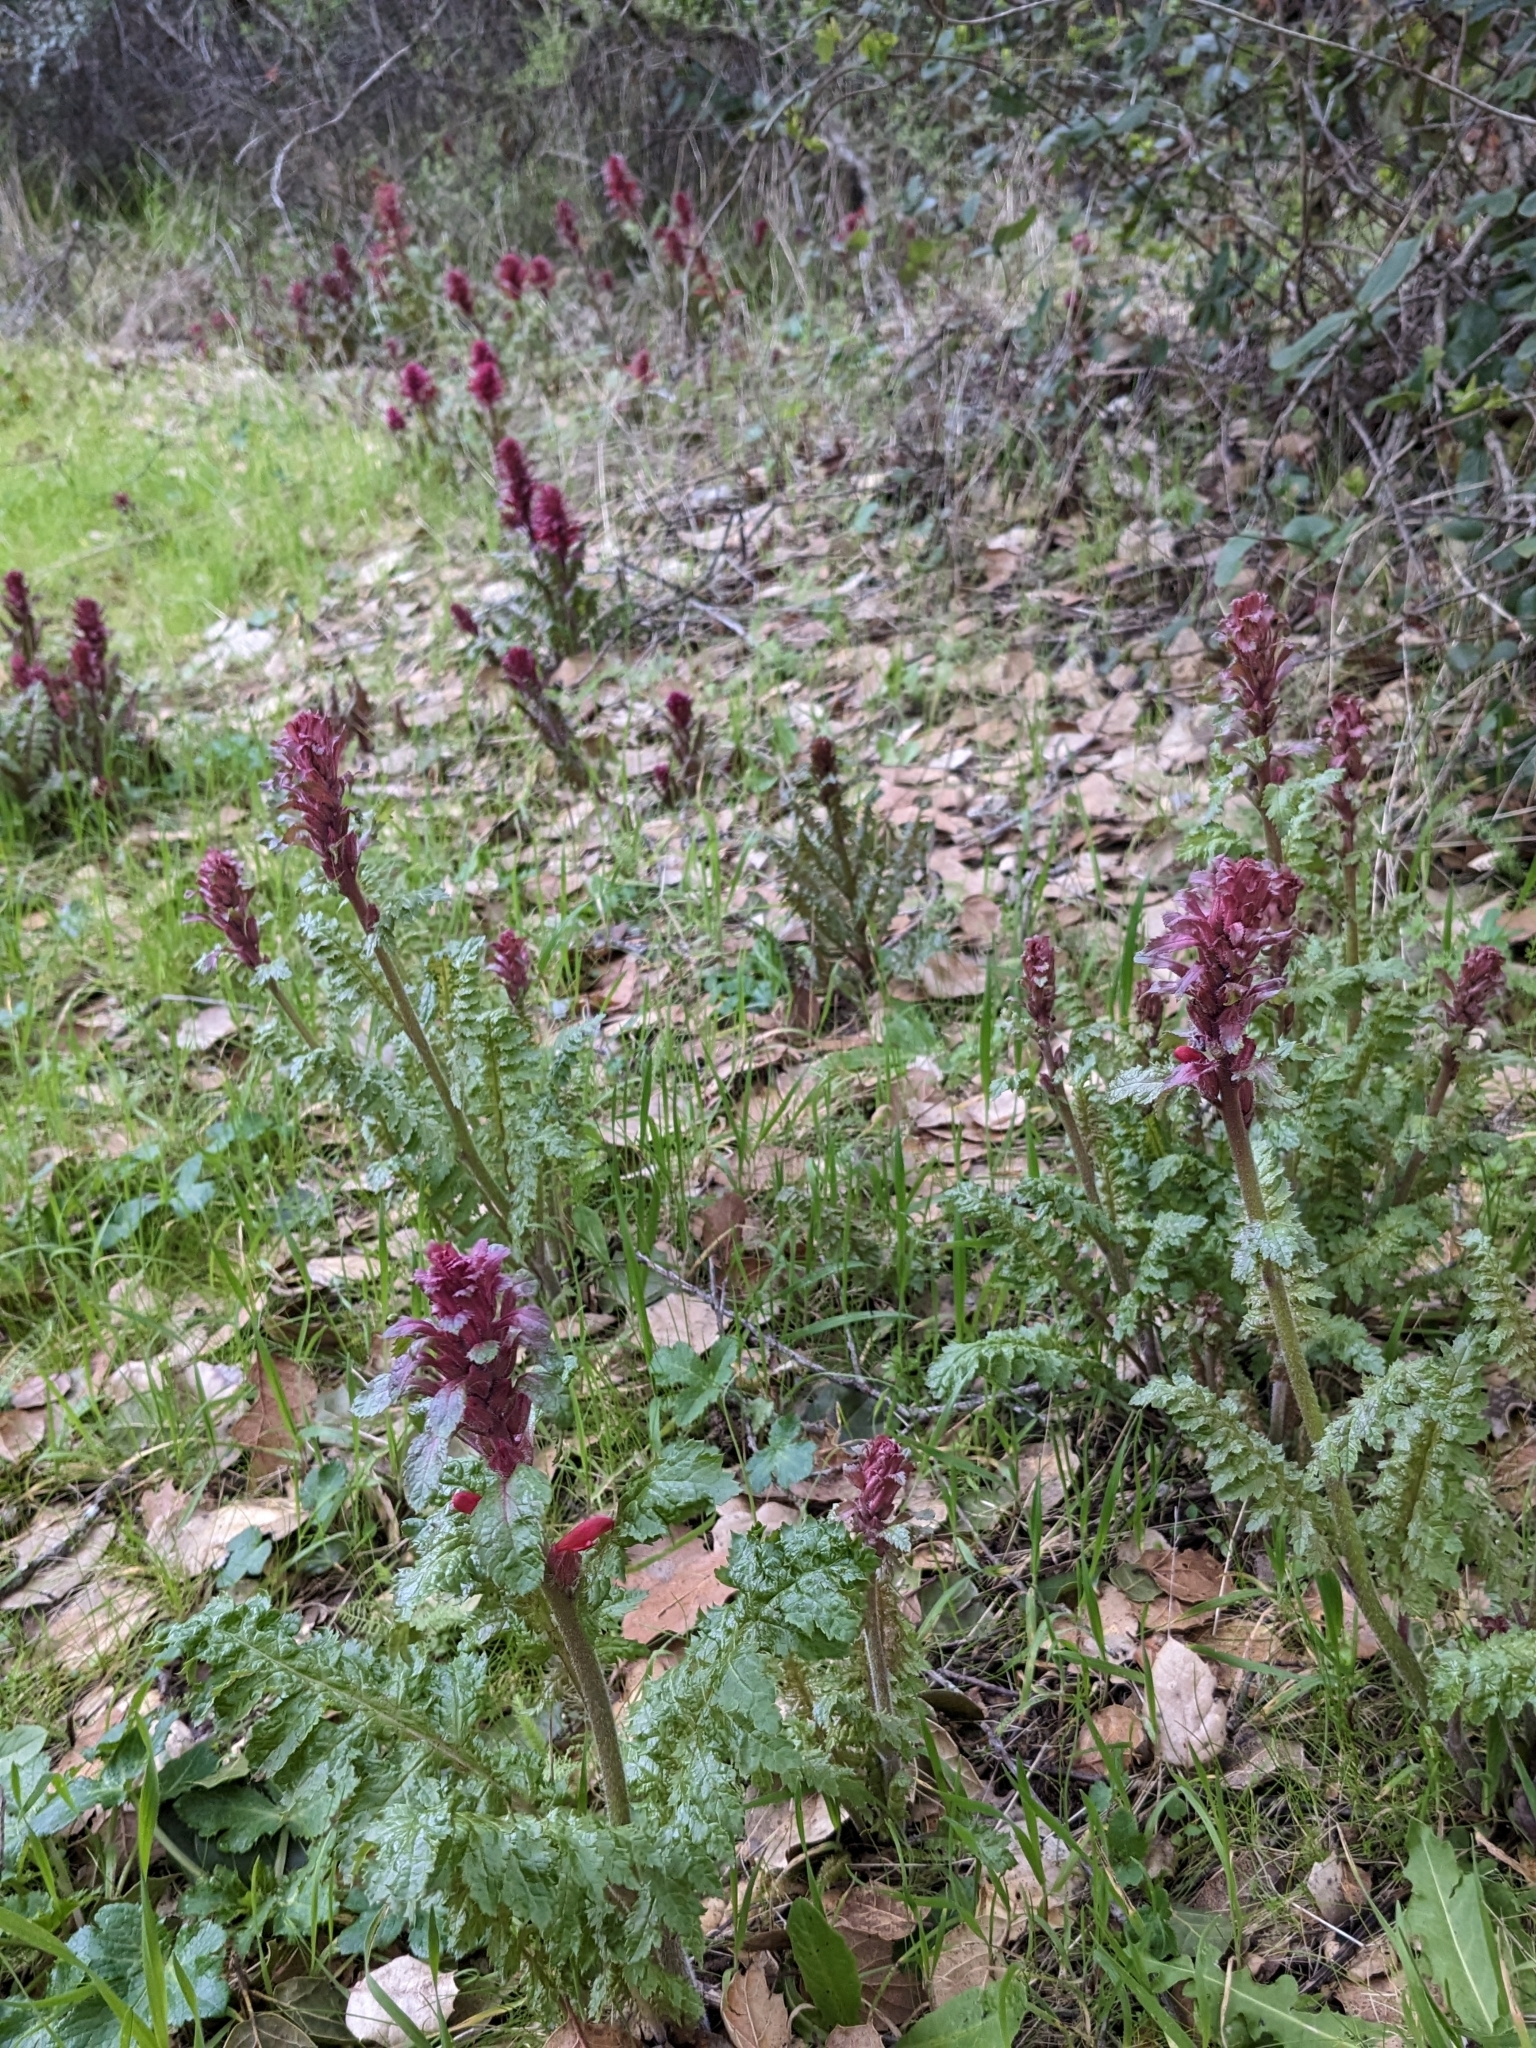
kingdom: Plantae
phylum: Tracheophyta
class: Magnoliopsida
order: Lamiales
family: Orobanchaceae
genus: Pedicularis
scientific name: Pedicularis densiflora
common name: Indian warrior
